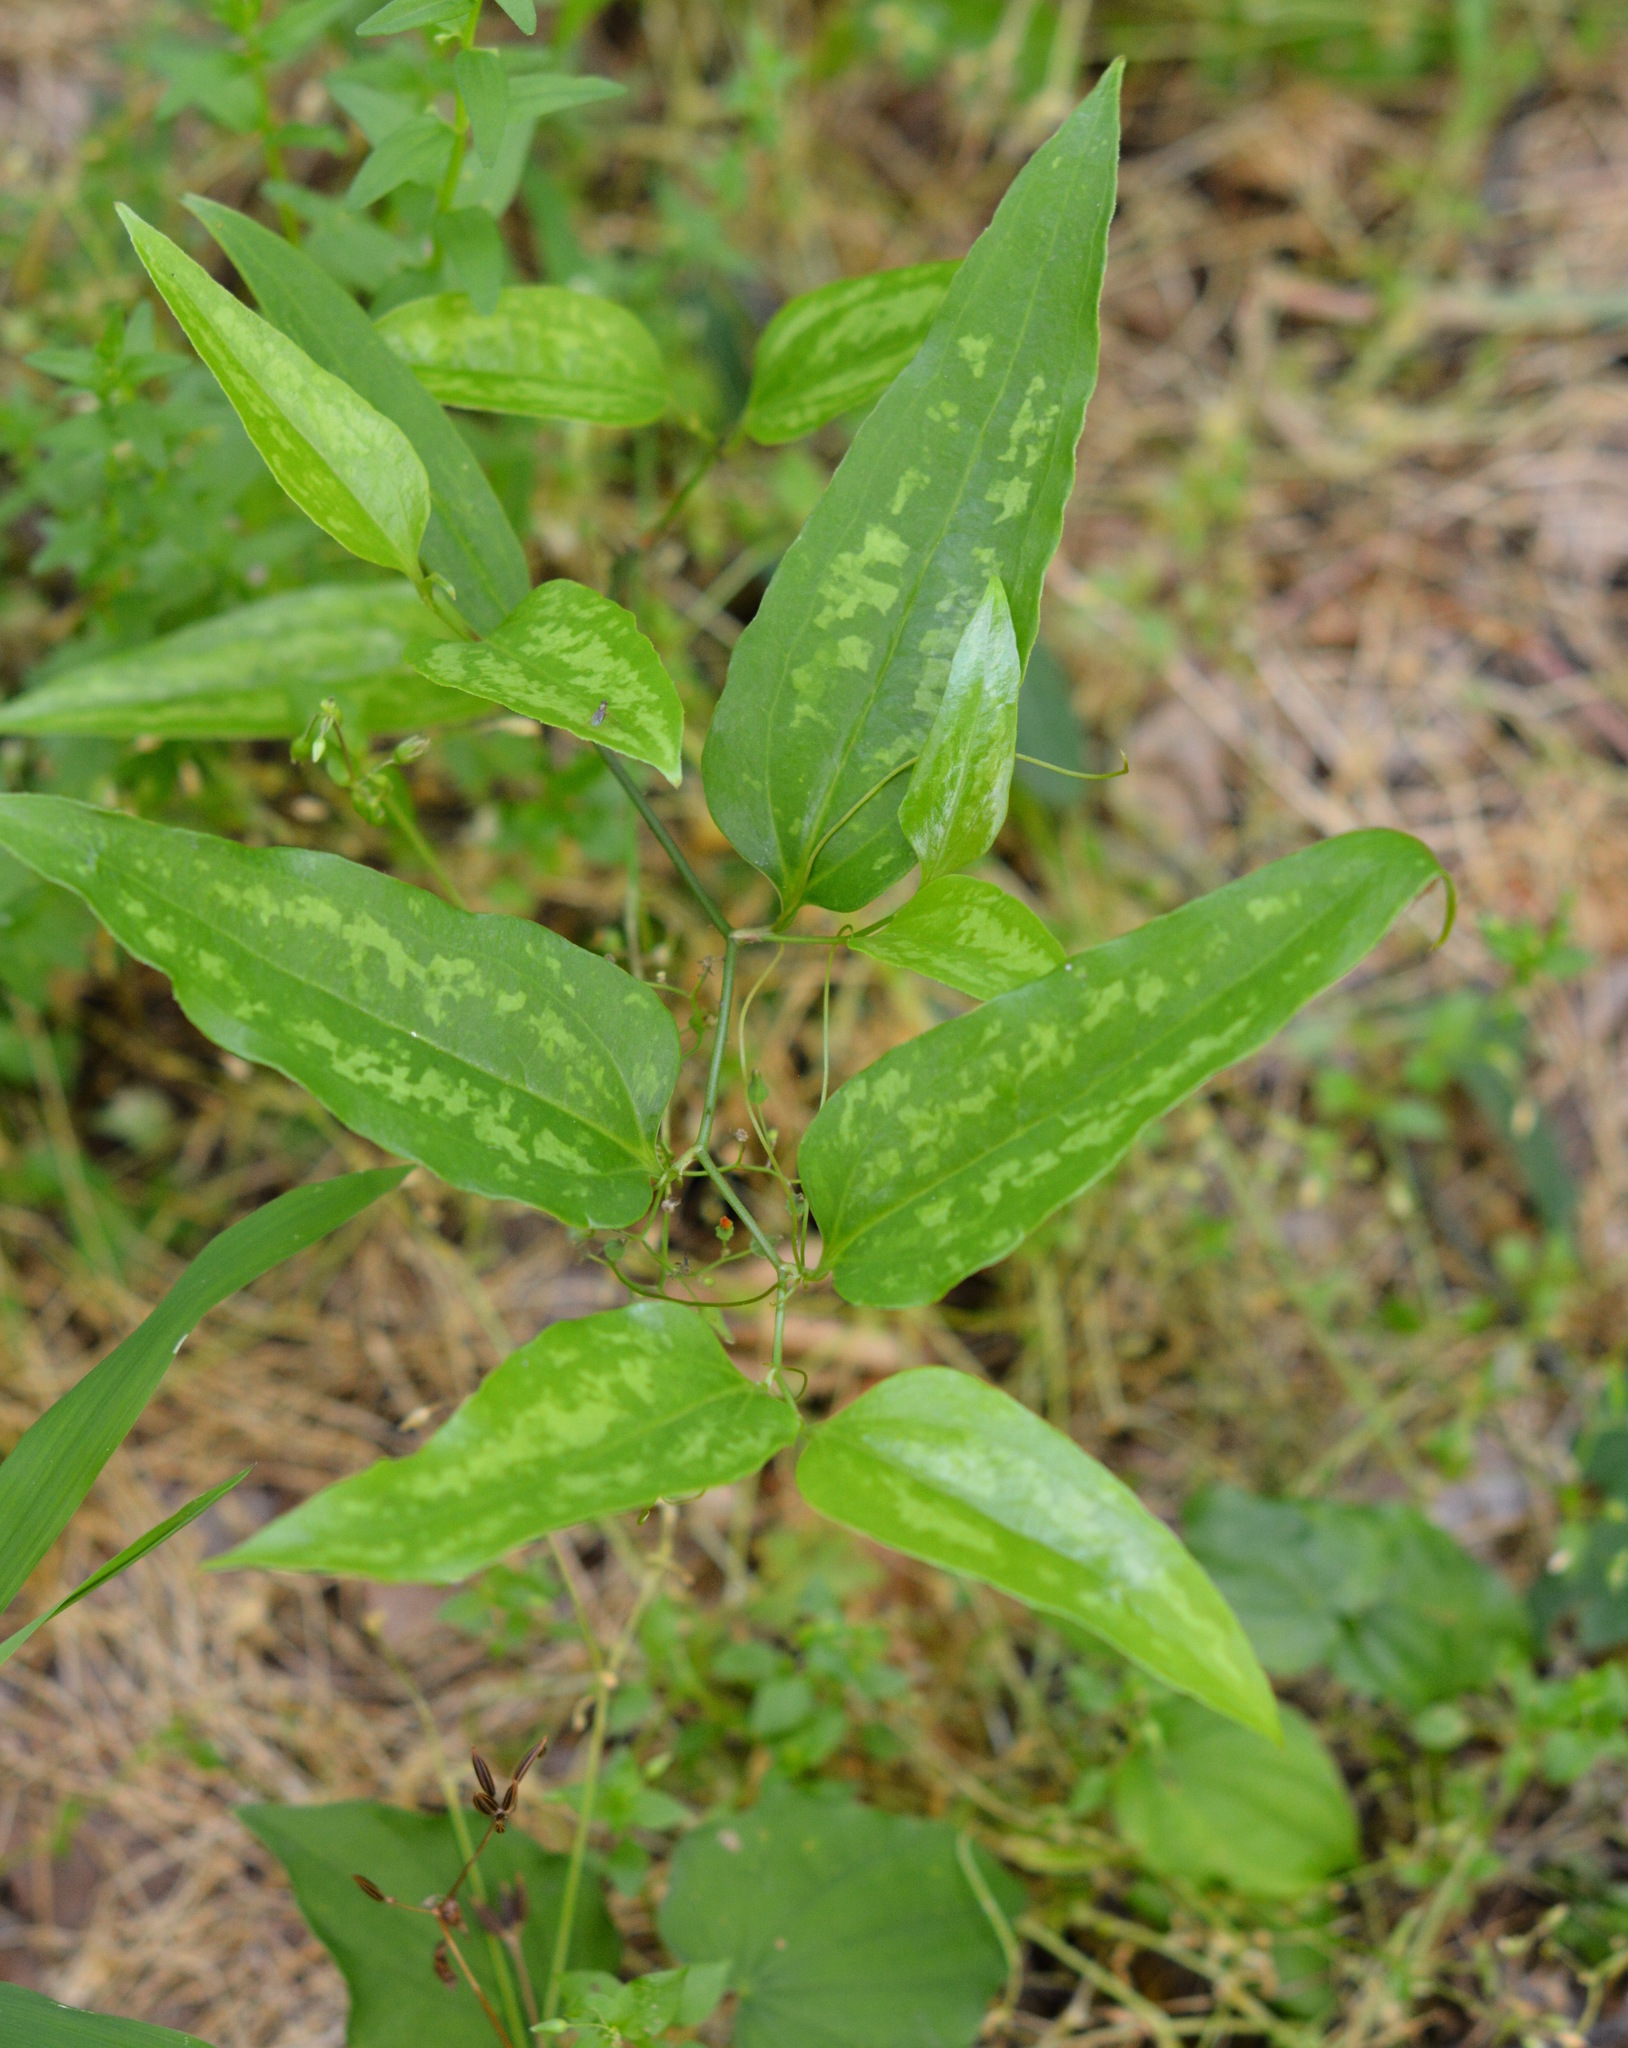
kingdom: Plantae
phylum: Tracheophyta
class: Liliopsida
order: Liliales
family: Smilacaceae
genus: Smilax
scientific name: Smilax maritima
